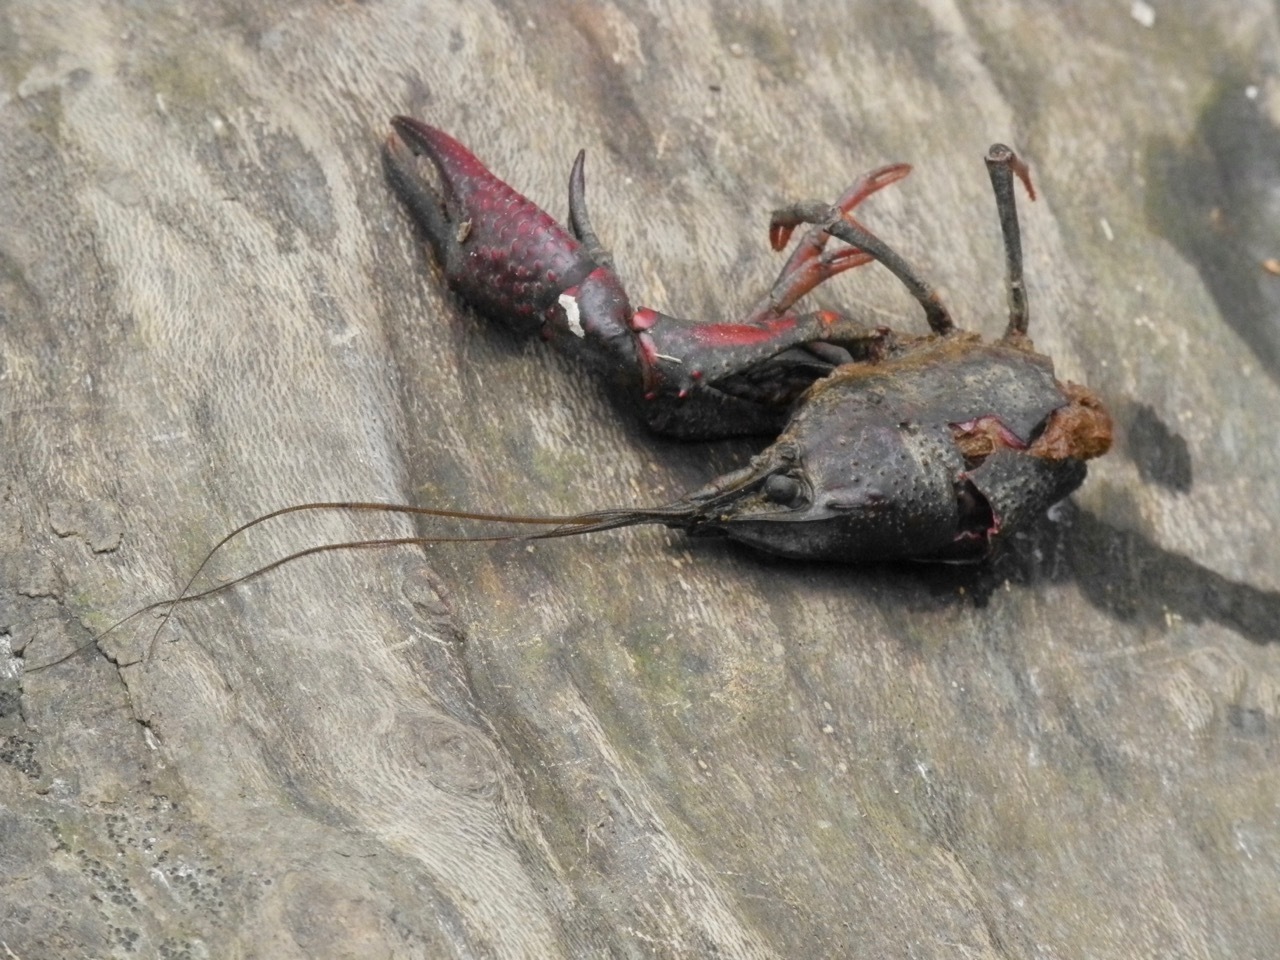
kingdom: Animalia
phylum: Arthropoda
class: Malacostraca
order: Decapoda
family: Cambaridae
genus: Procambarus
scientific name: Procambarus clarkii
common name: Red swamp crayfish
